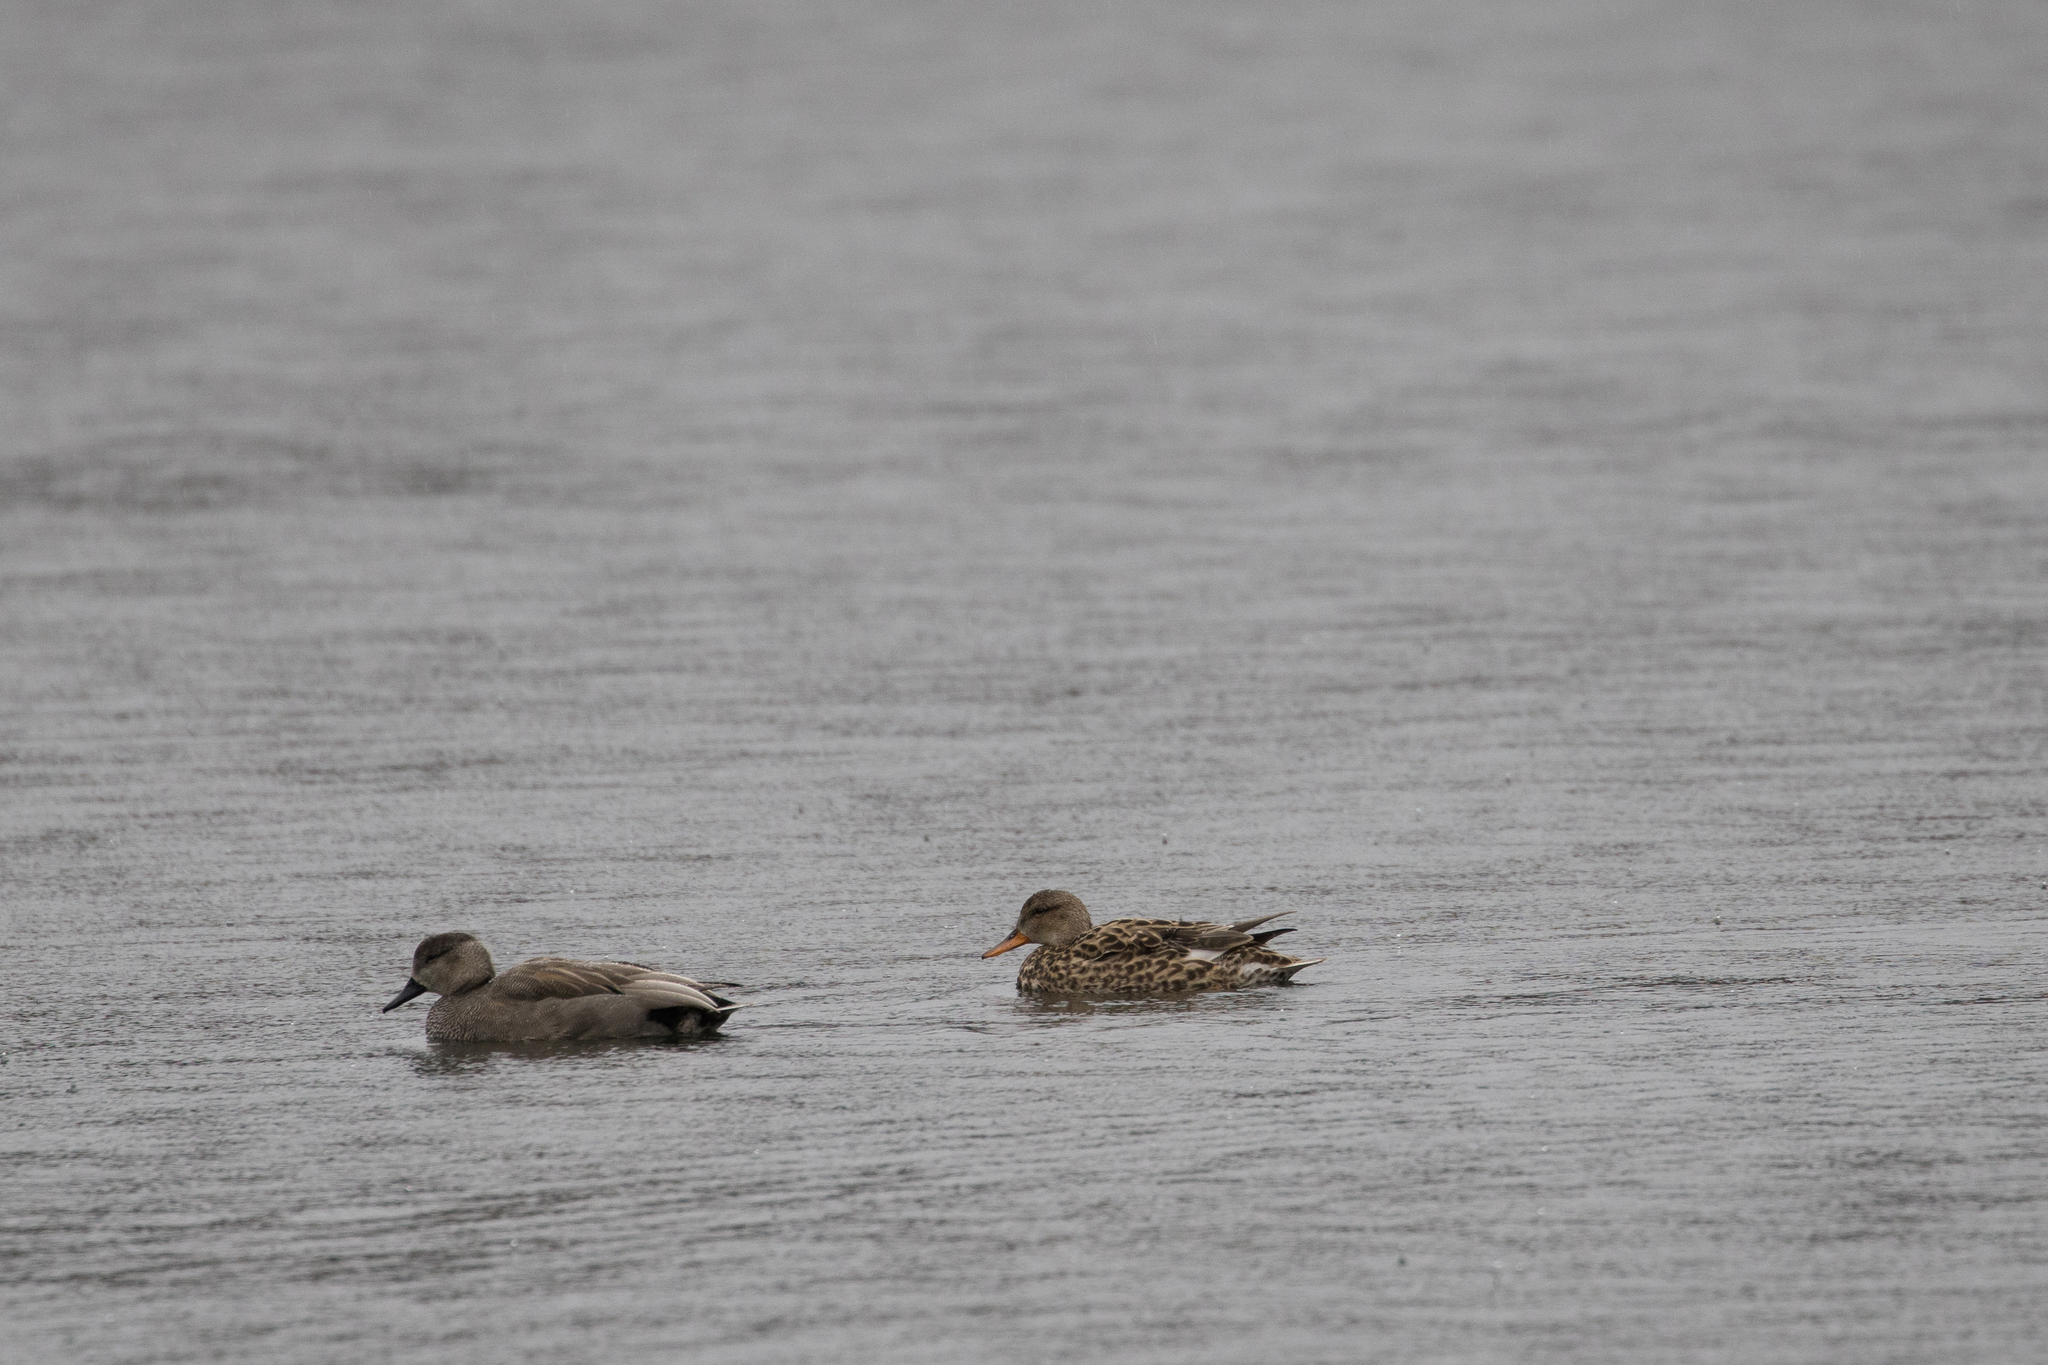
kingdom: Animalia
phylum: Chordata
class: Aves
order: Anseriformes
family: Anatidae
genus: Mareca
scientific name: Mareca strepera
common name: Gadwall
